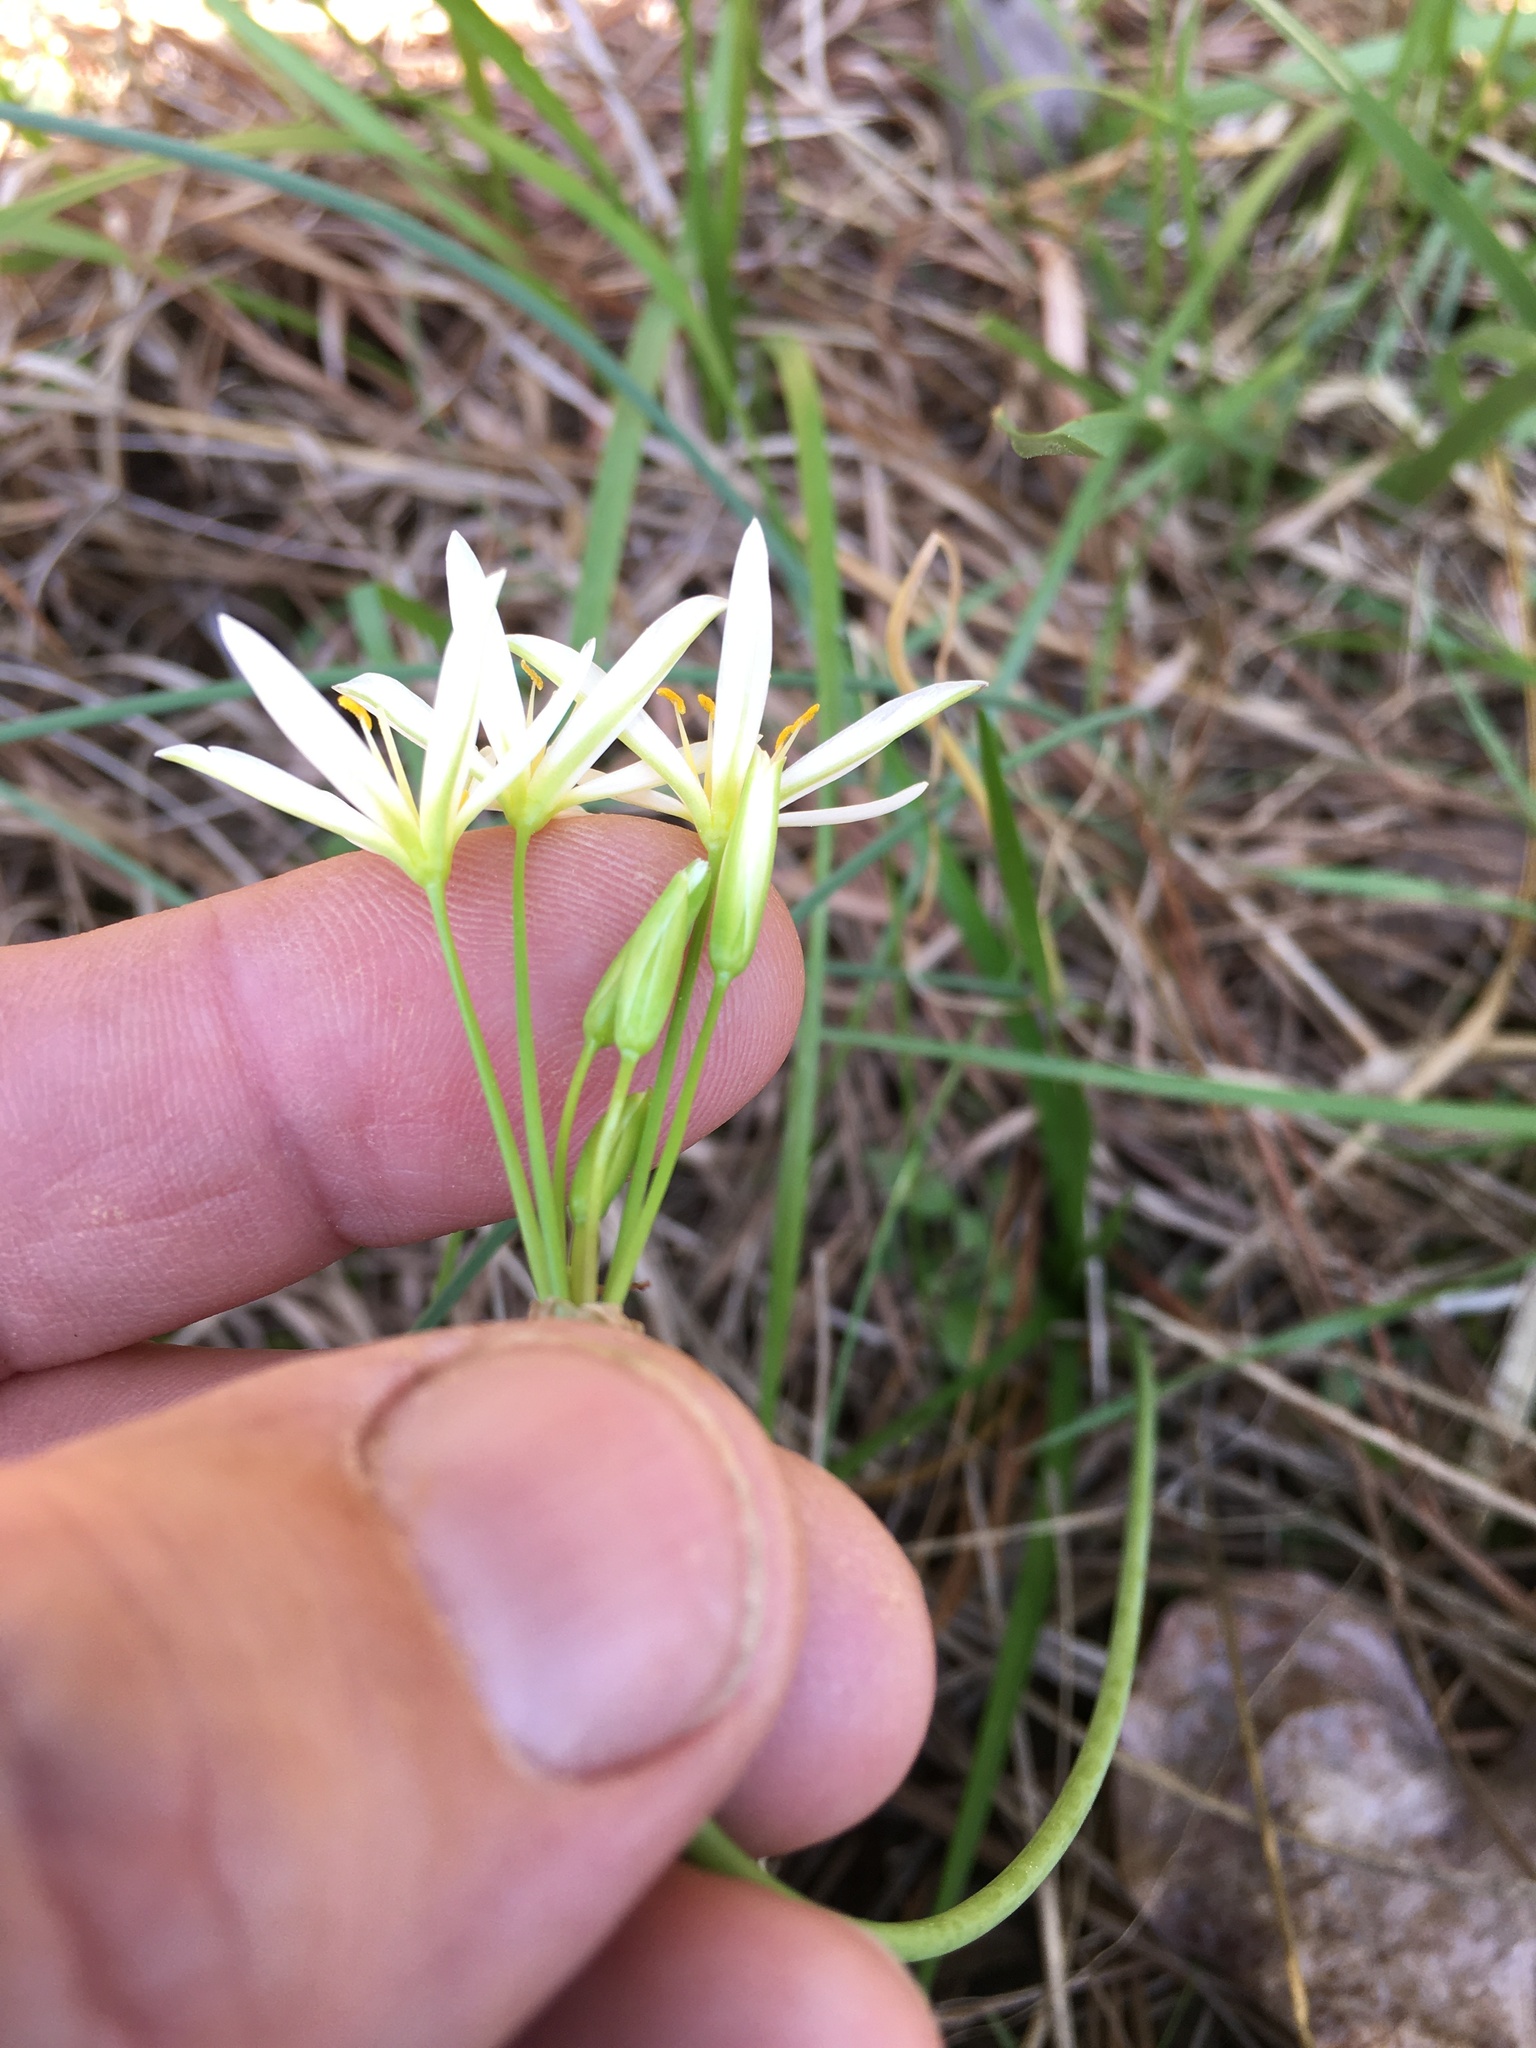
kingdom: Plantae
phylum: Tracheophyta
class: Liliopsida
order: Asparagales
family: Amaryllidaceae
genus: Nothoscordum
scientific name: Nothoscordum bivalve
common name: Crow-poison
